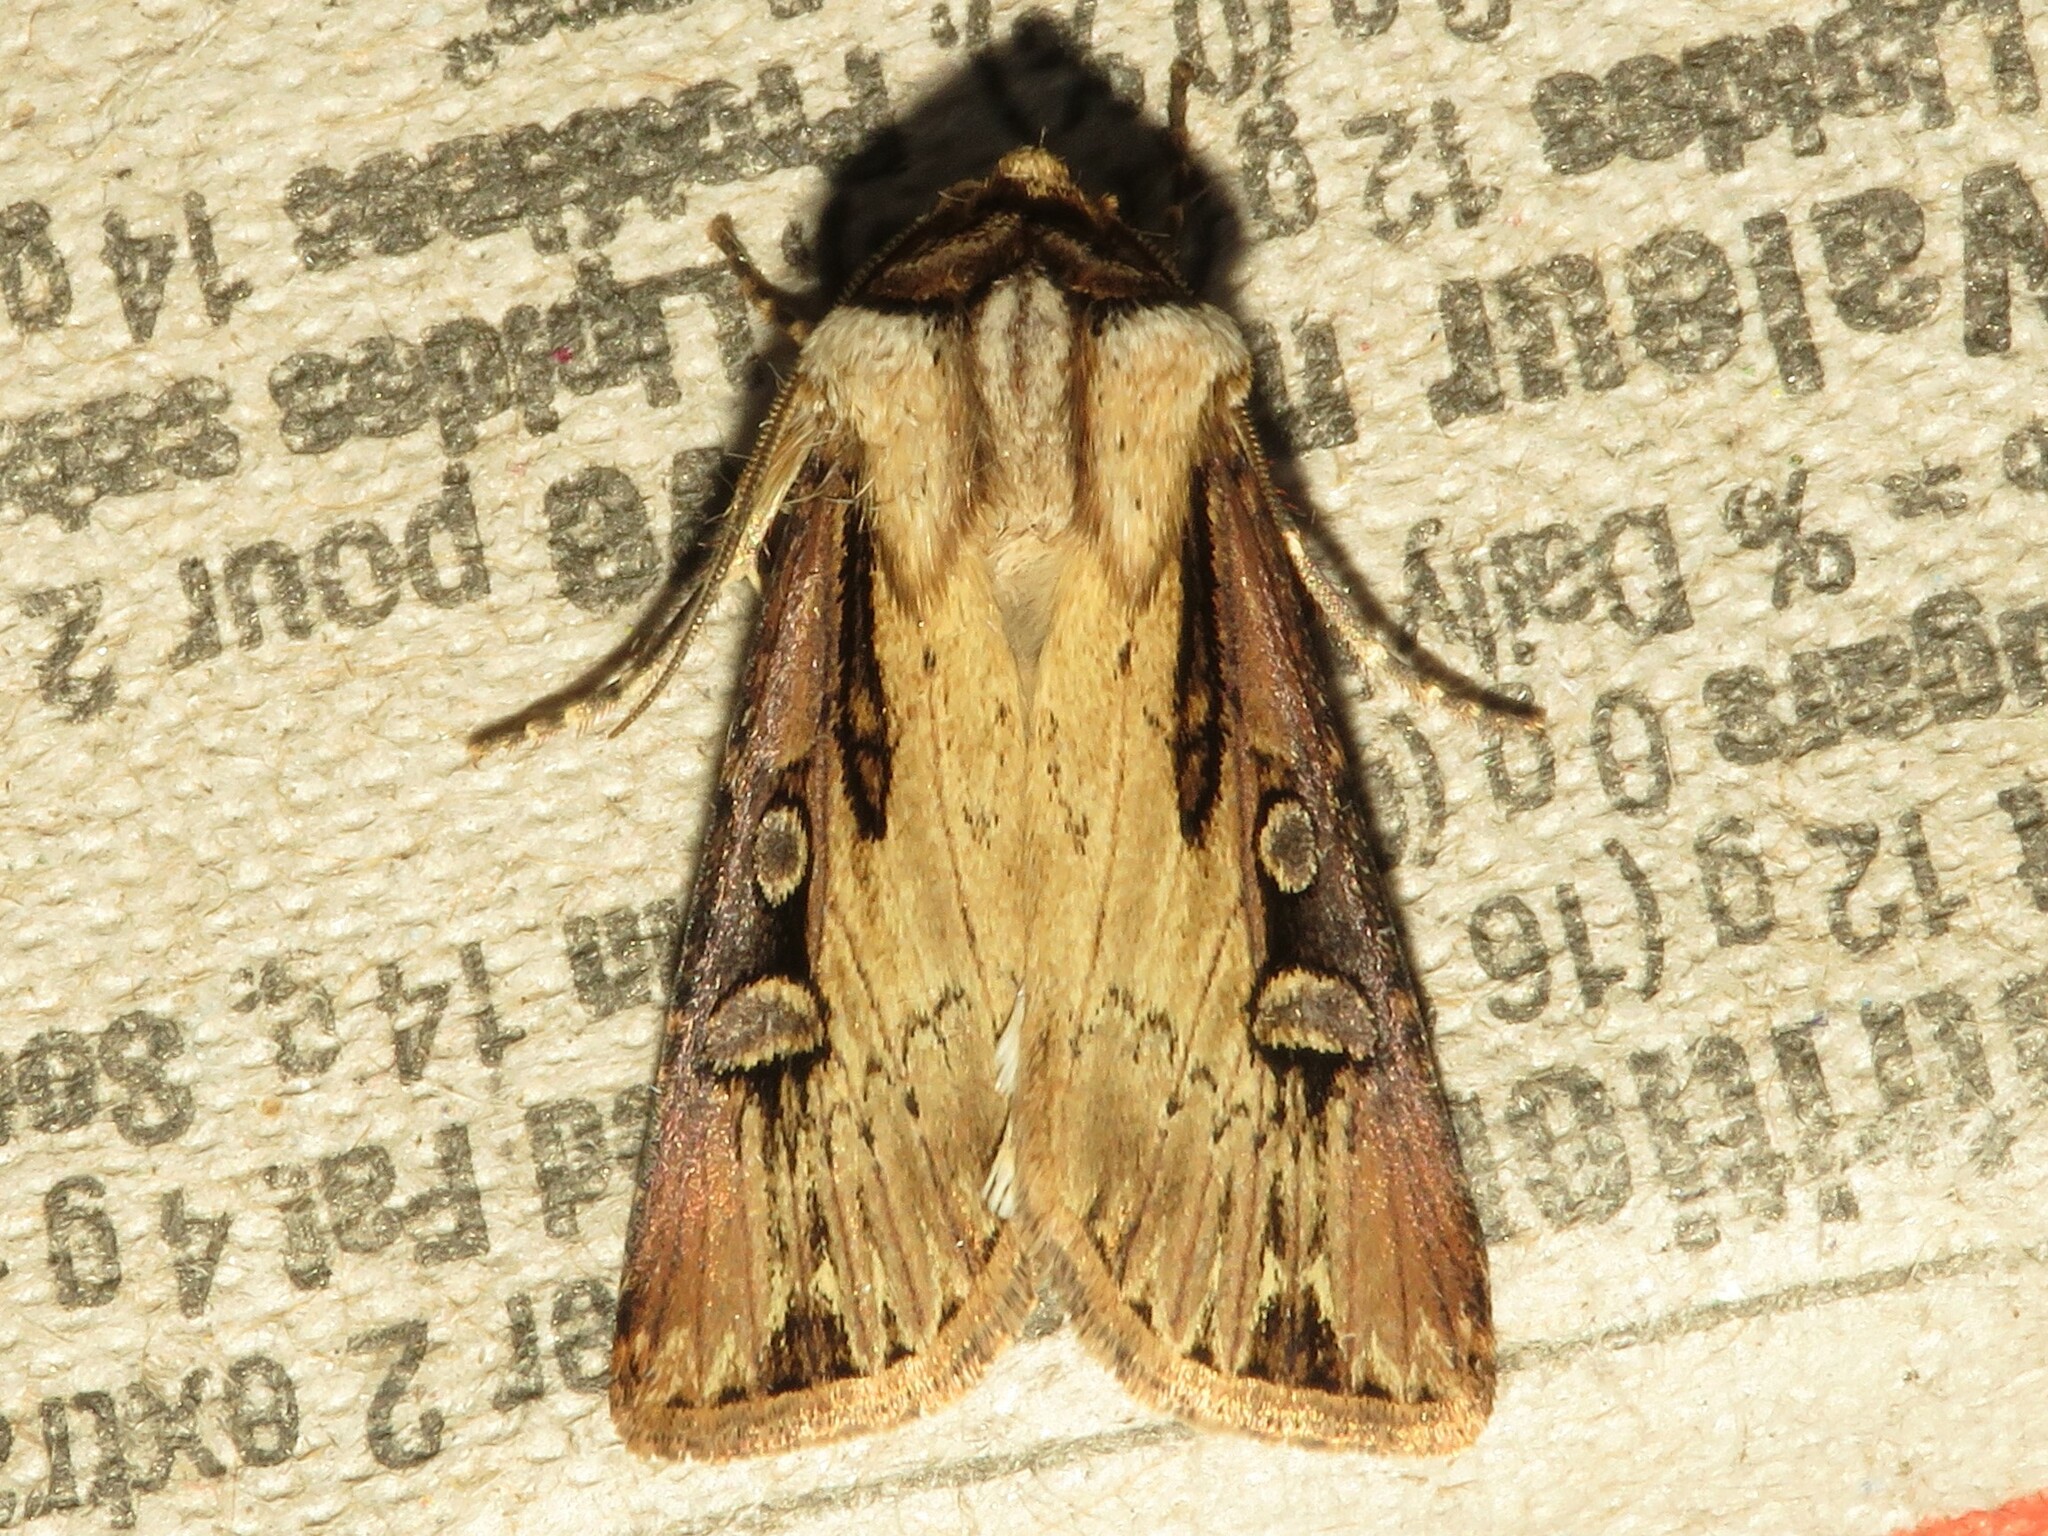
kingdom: Animalia
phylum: Arthropoda
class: Insecta
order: Lepidoptera
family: Noctuidae
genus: Agrotis
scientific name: Agrotis volubilis
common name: Voluble dart
